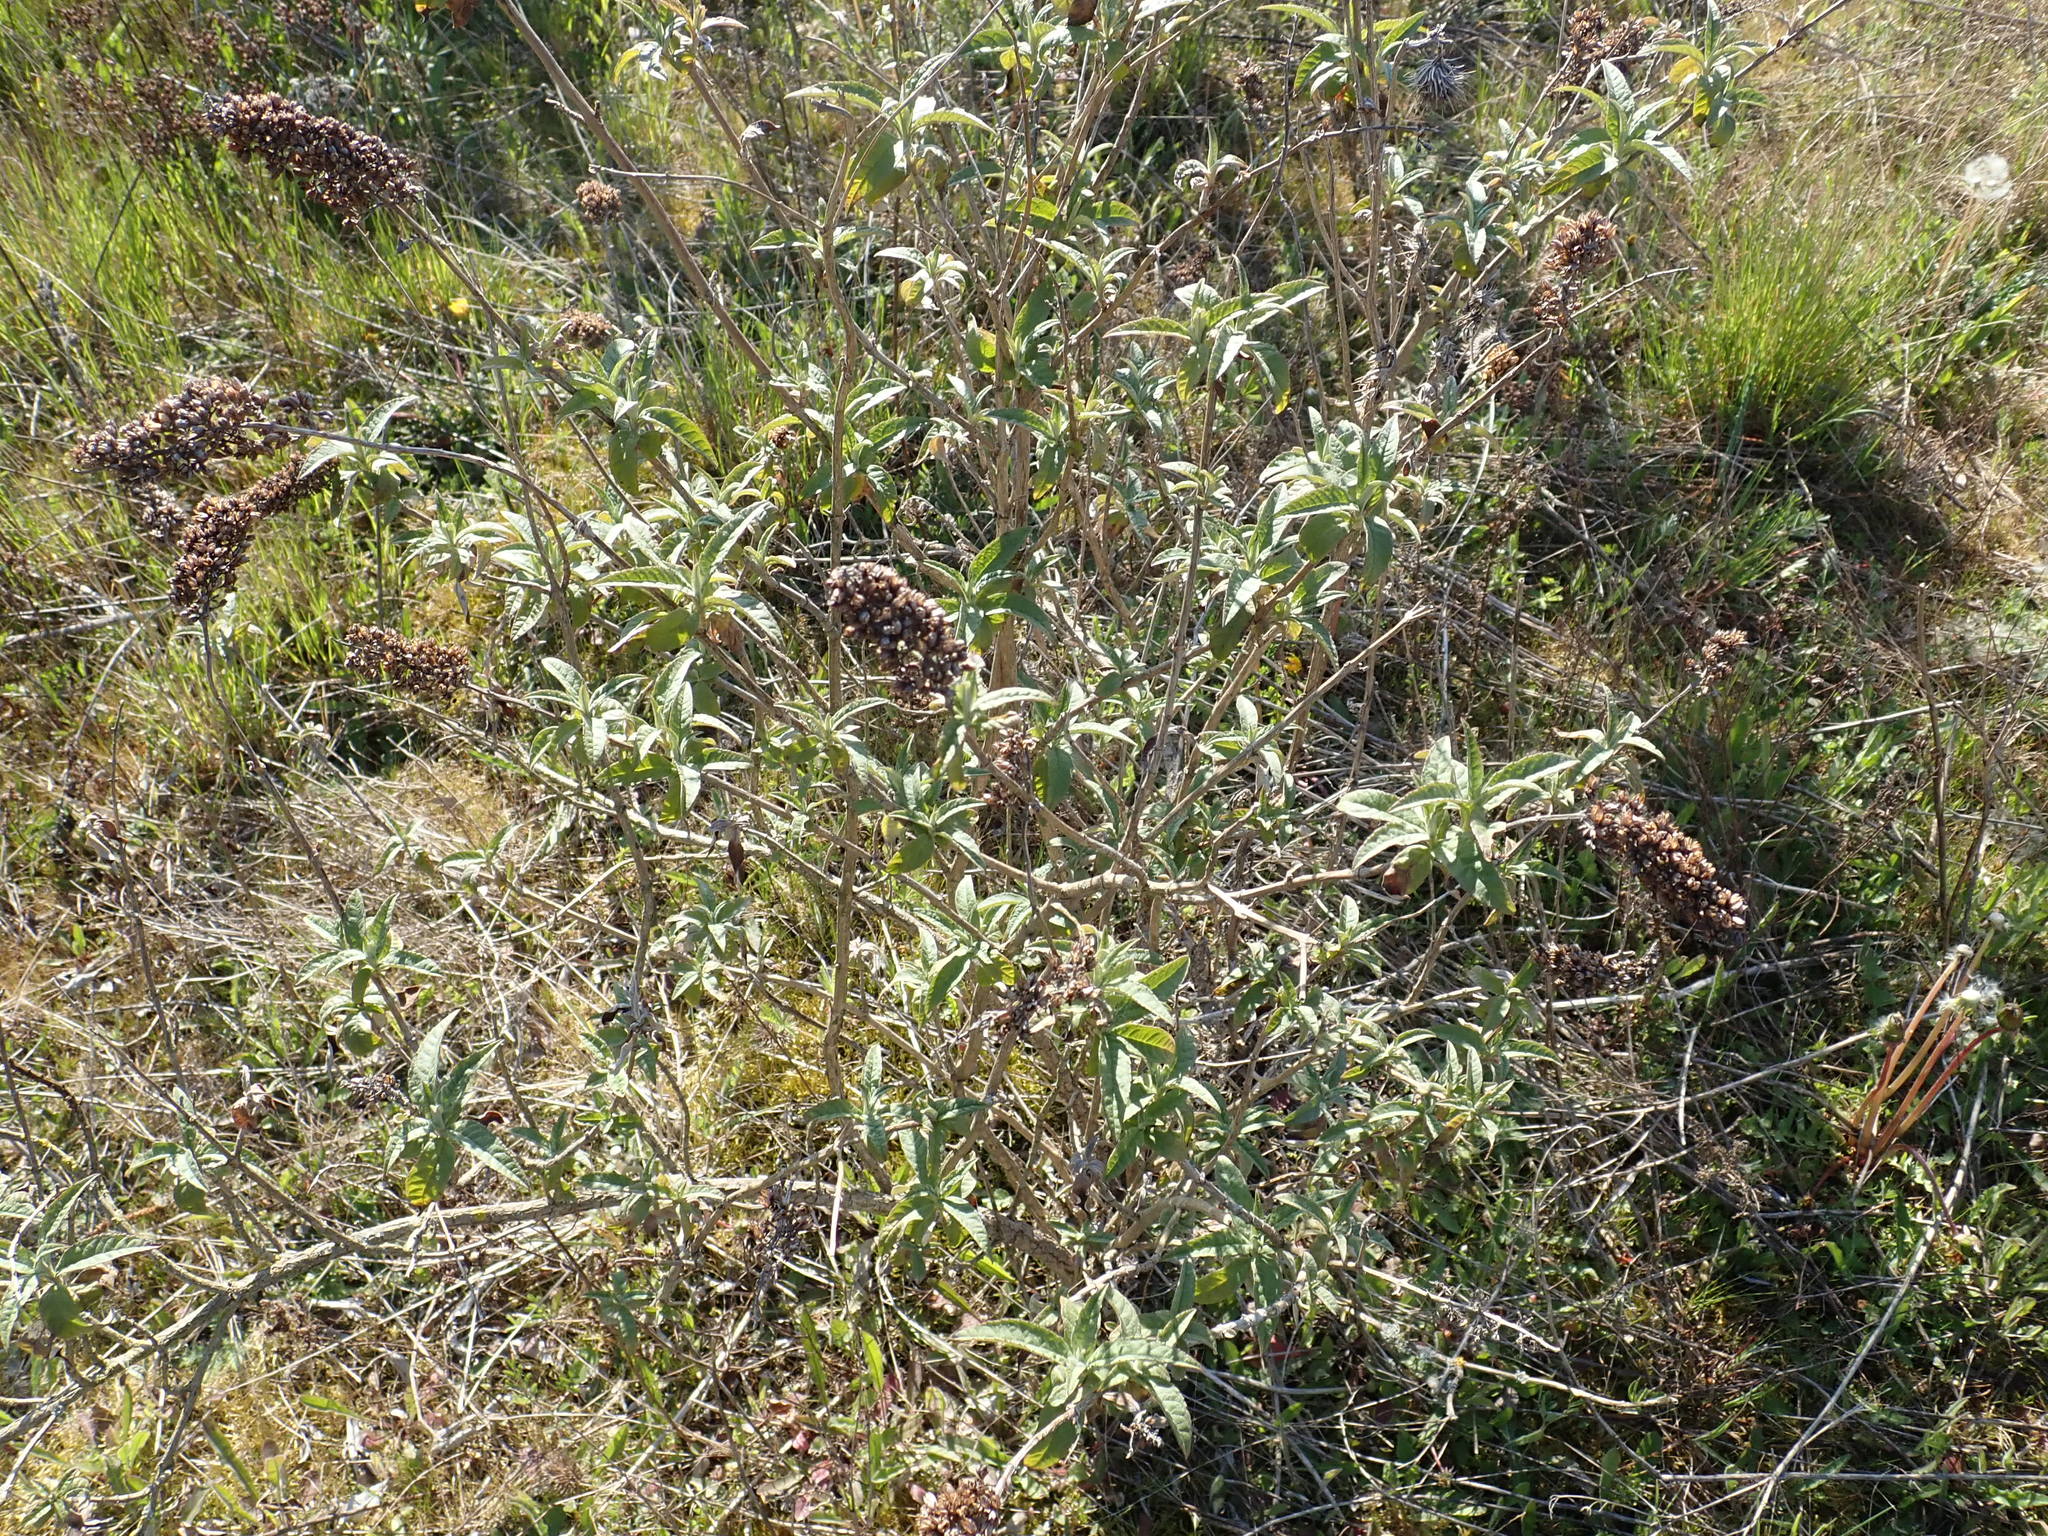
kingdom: Plantae
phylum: Tracheophyta
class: Magnoliopsida
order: Lamiales
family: Scrophulariaceae
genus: Buddleja
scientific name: Buddleja davidii
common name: Butterfly-bush
